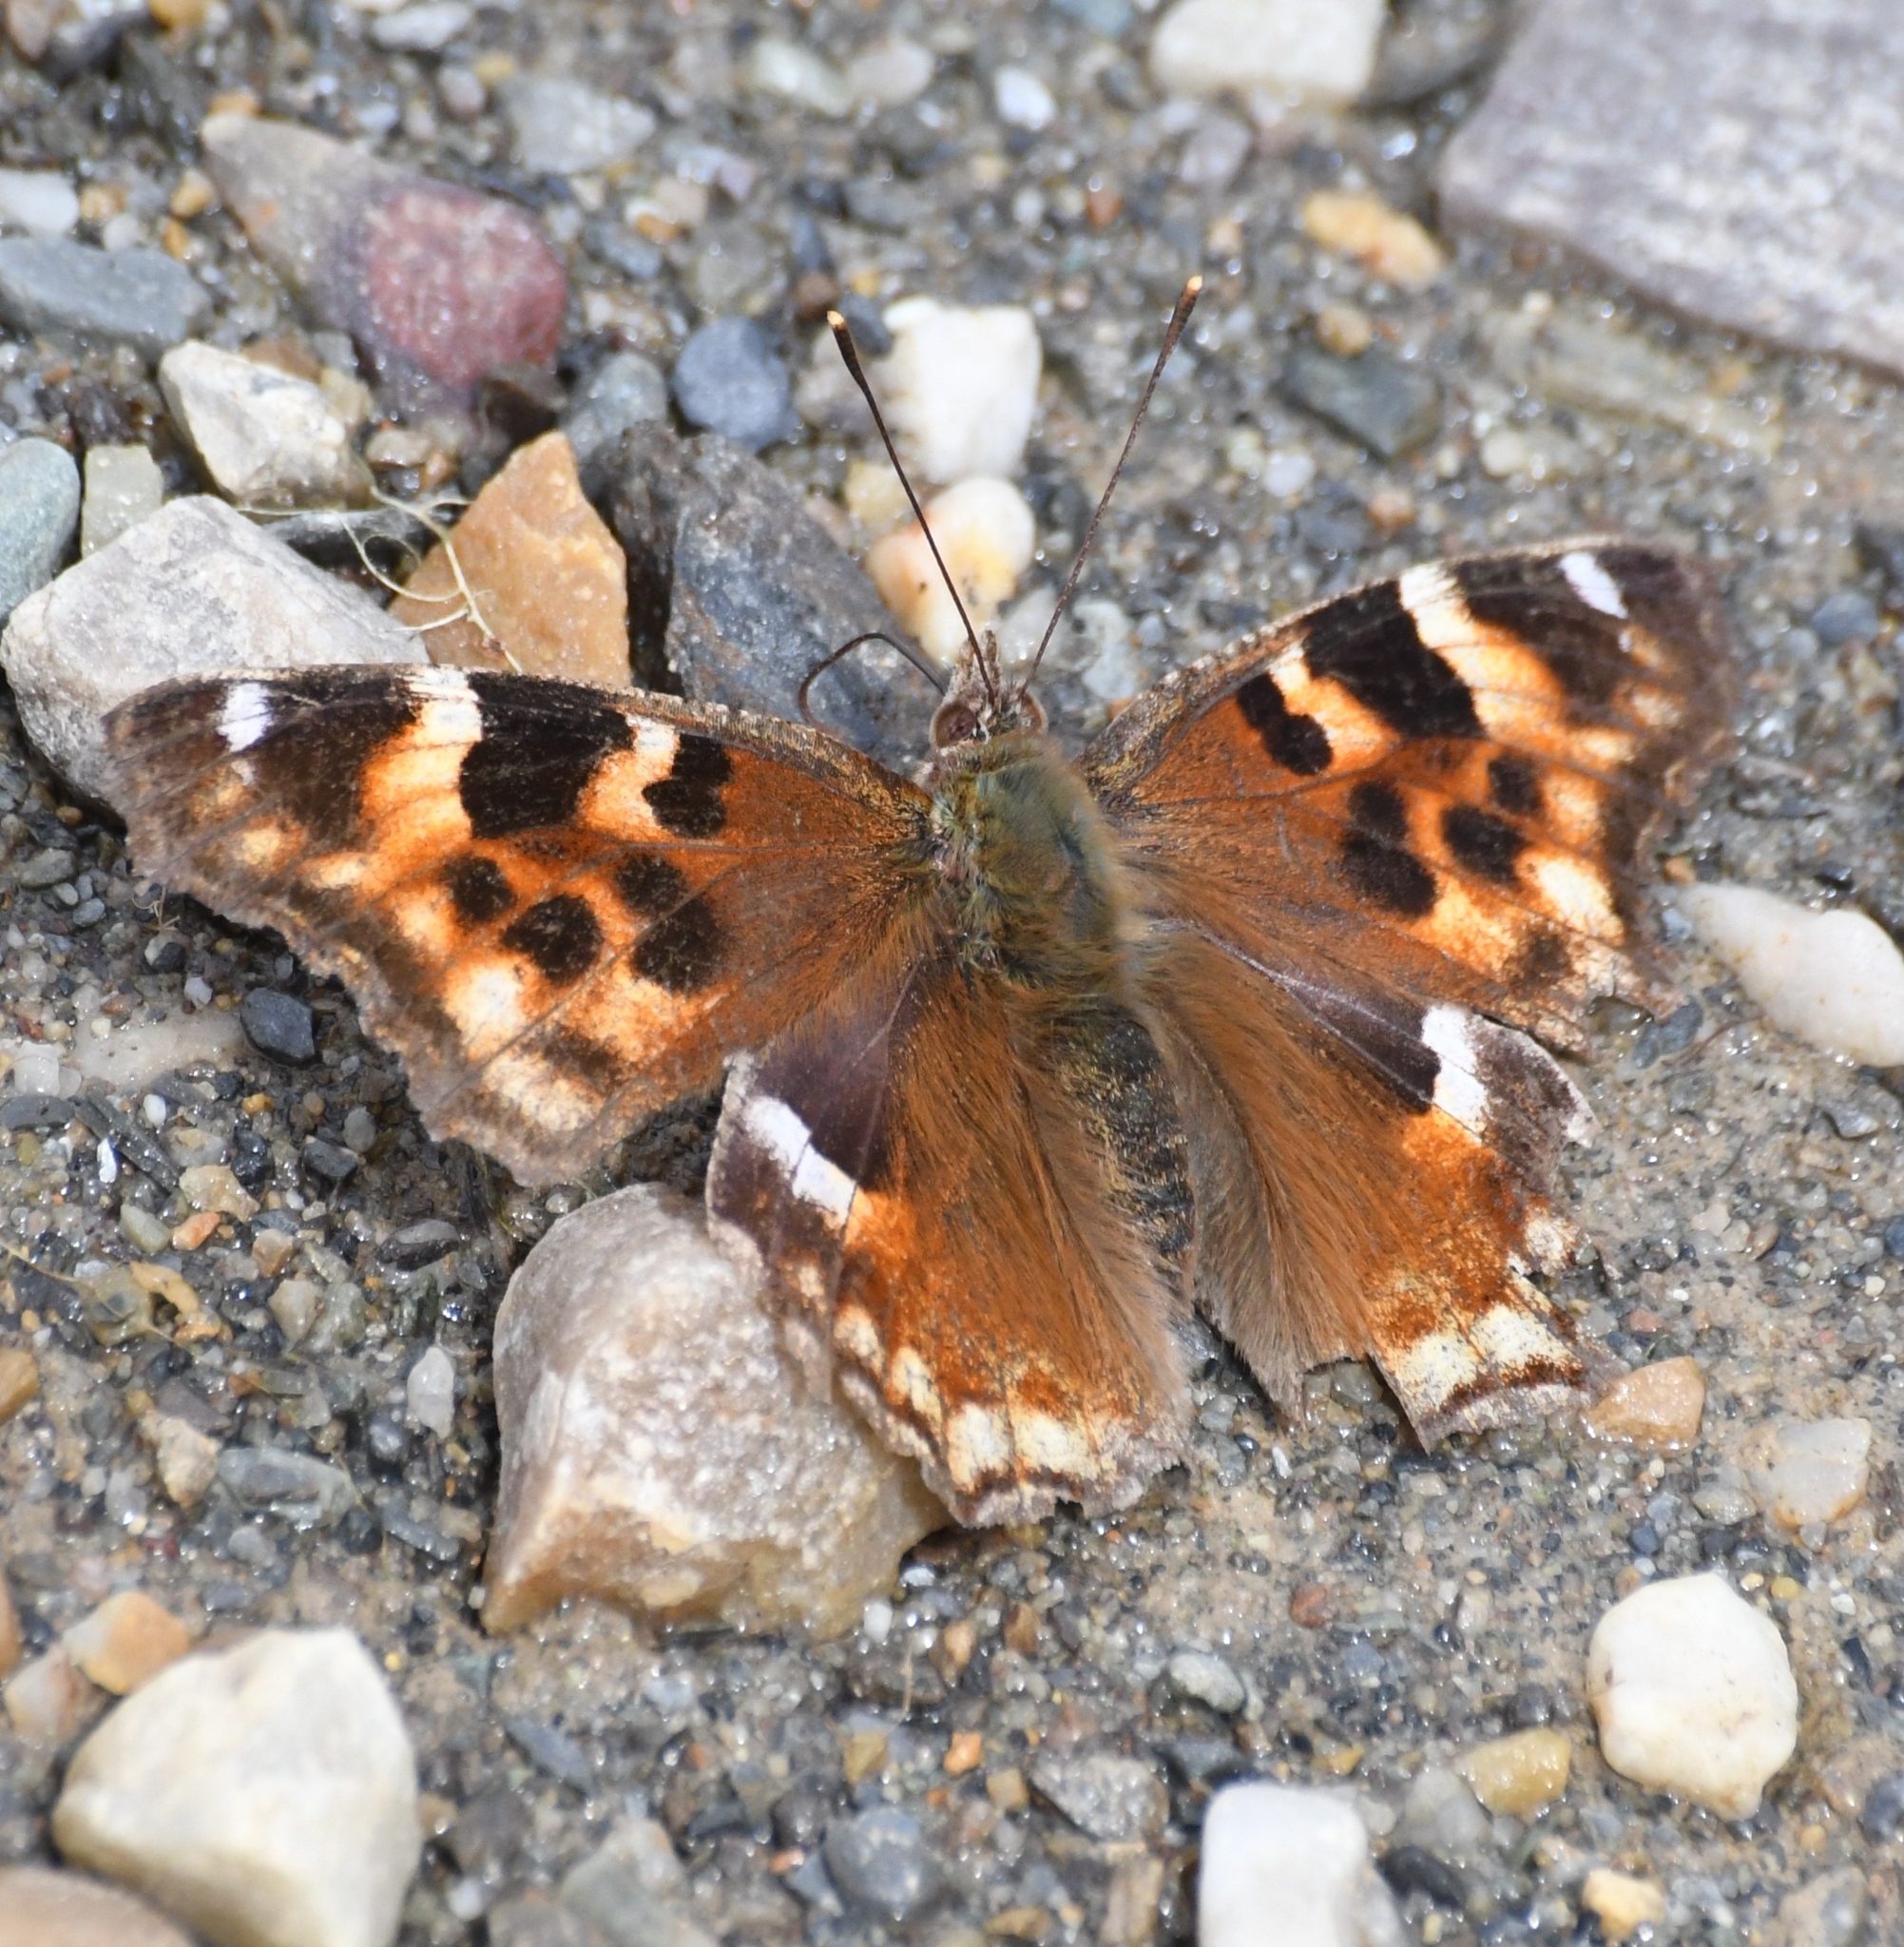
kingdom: Animalia
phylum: Arthropoda
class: Insecta
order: Lepidoptera
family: Nymphalidae
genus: Polygonia
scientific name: Polygonia vaualbum
